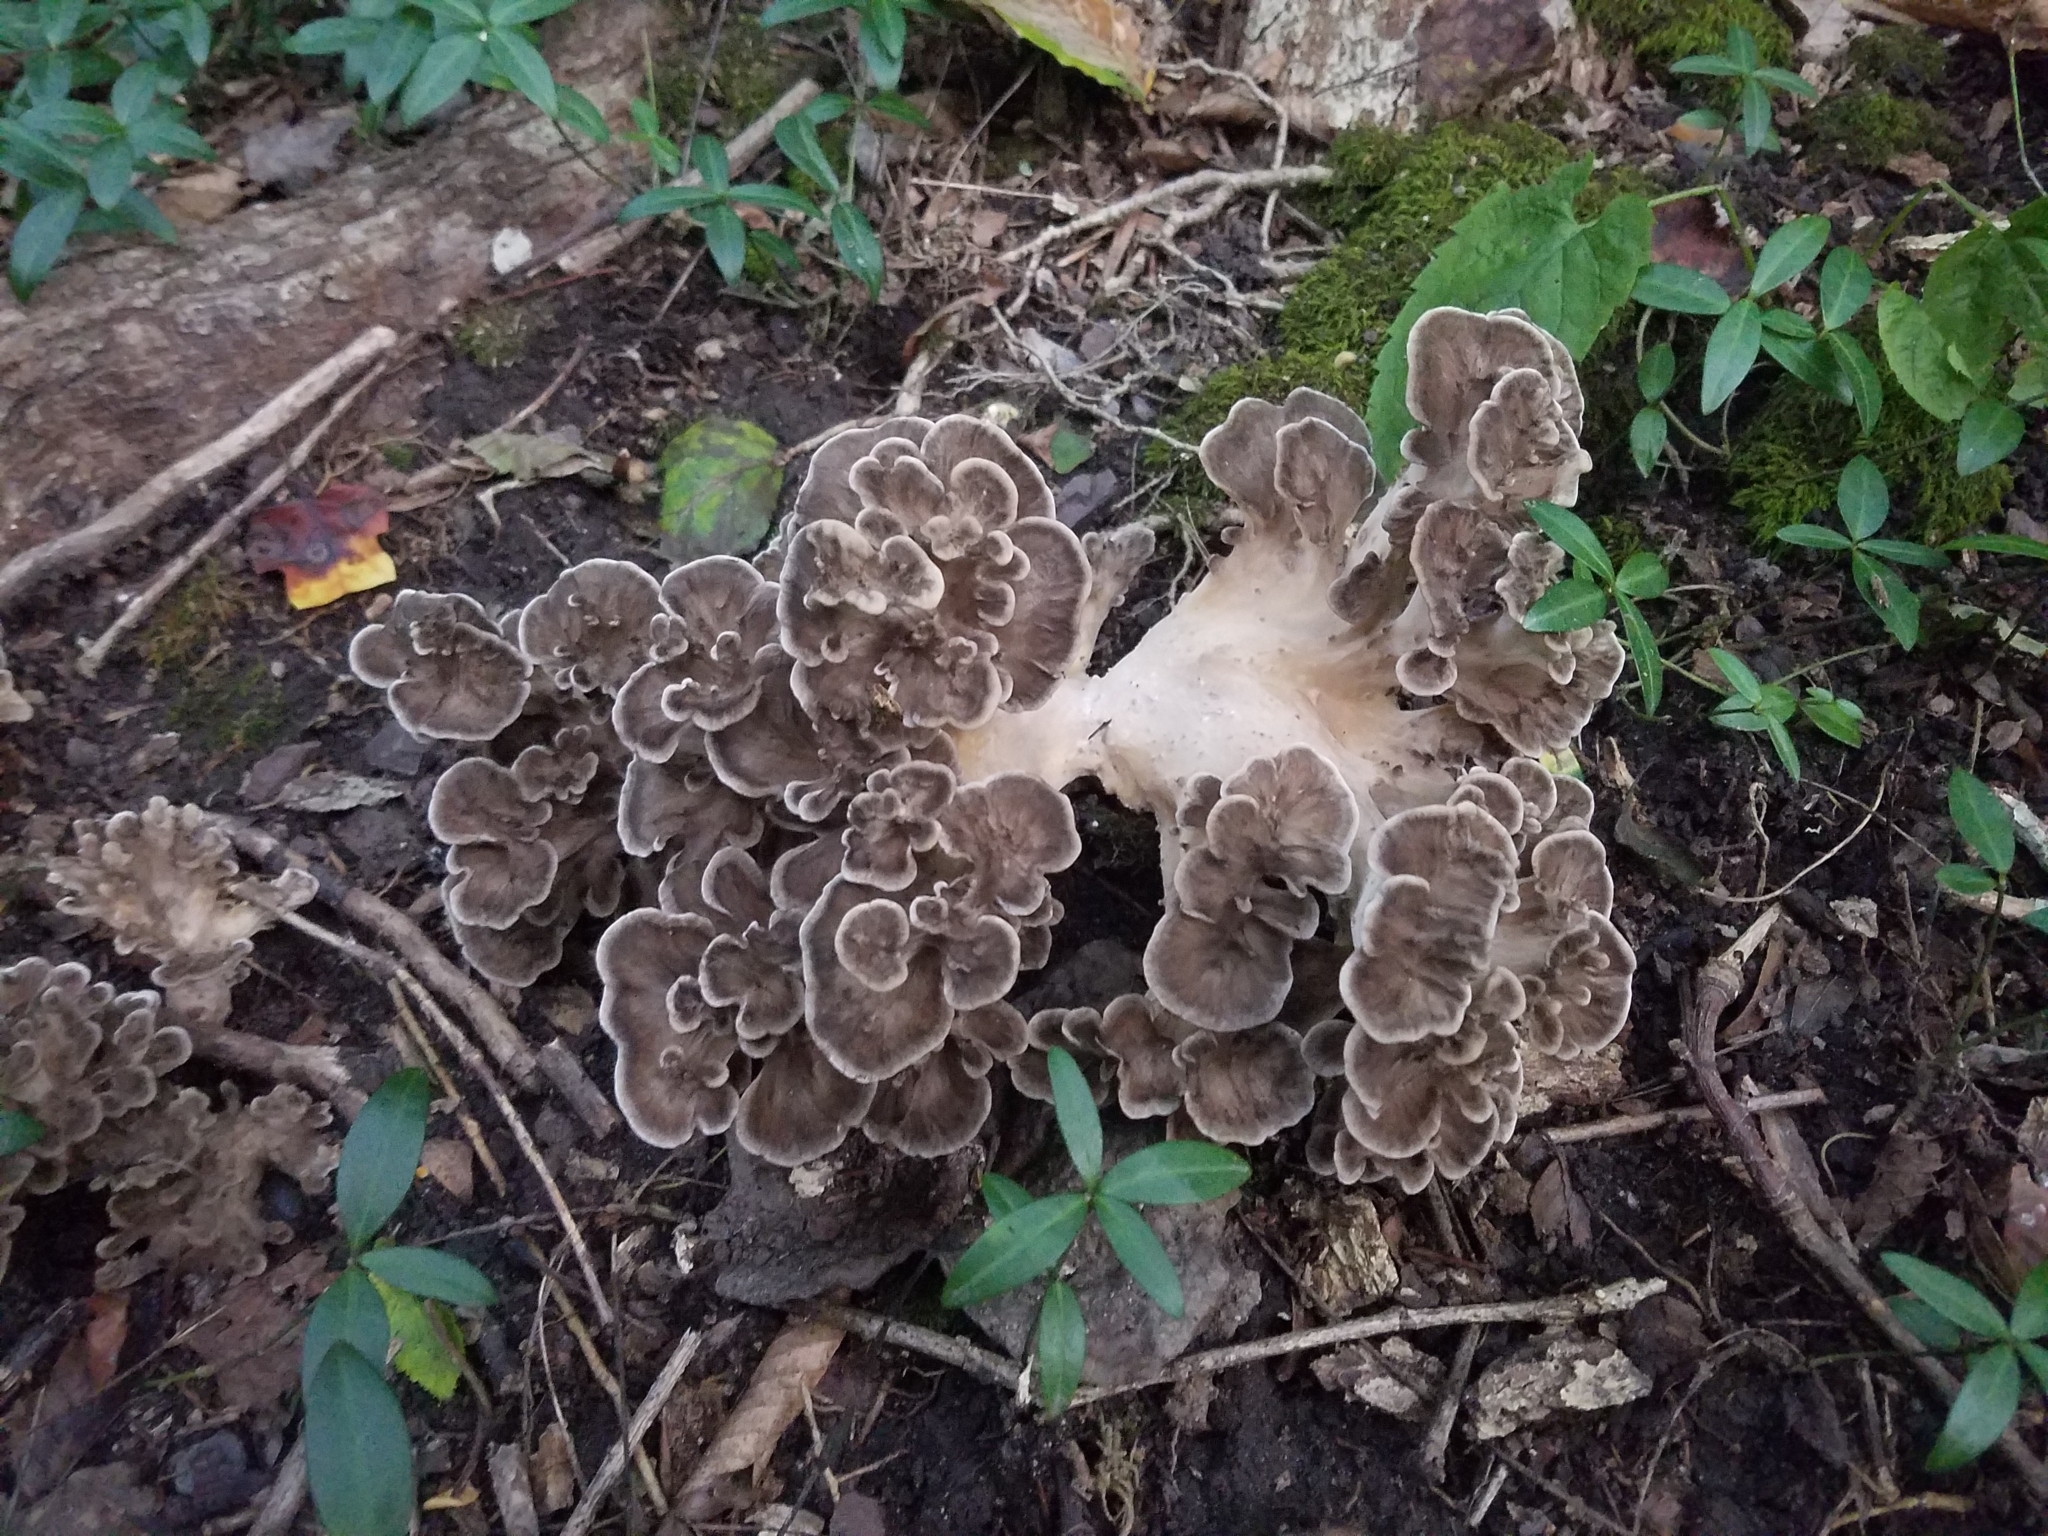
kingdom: Fungi
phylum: Basidiomycota
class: Agaricomycetes
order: Polyporales
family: Grifolaceae
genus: Grifola
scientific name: Grifola frondosa
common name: Hen of the woods
